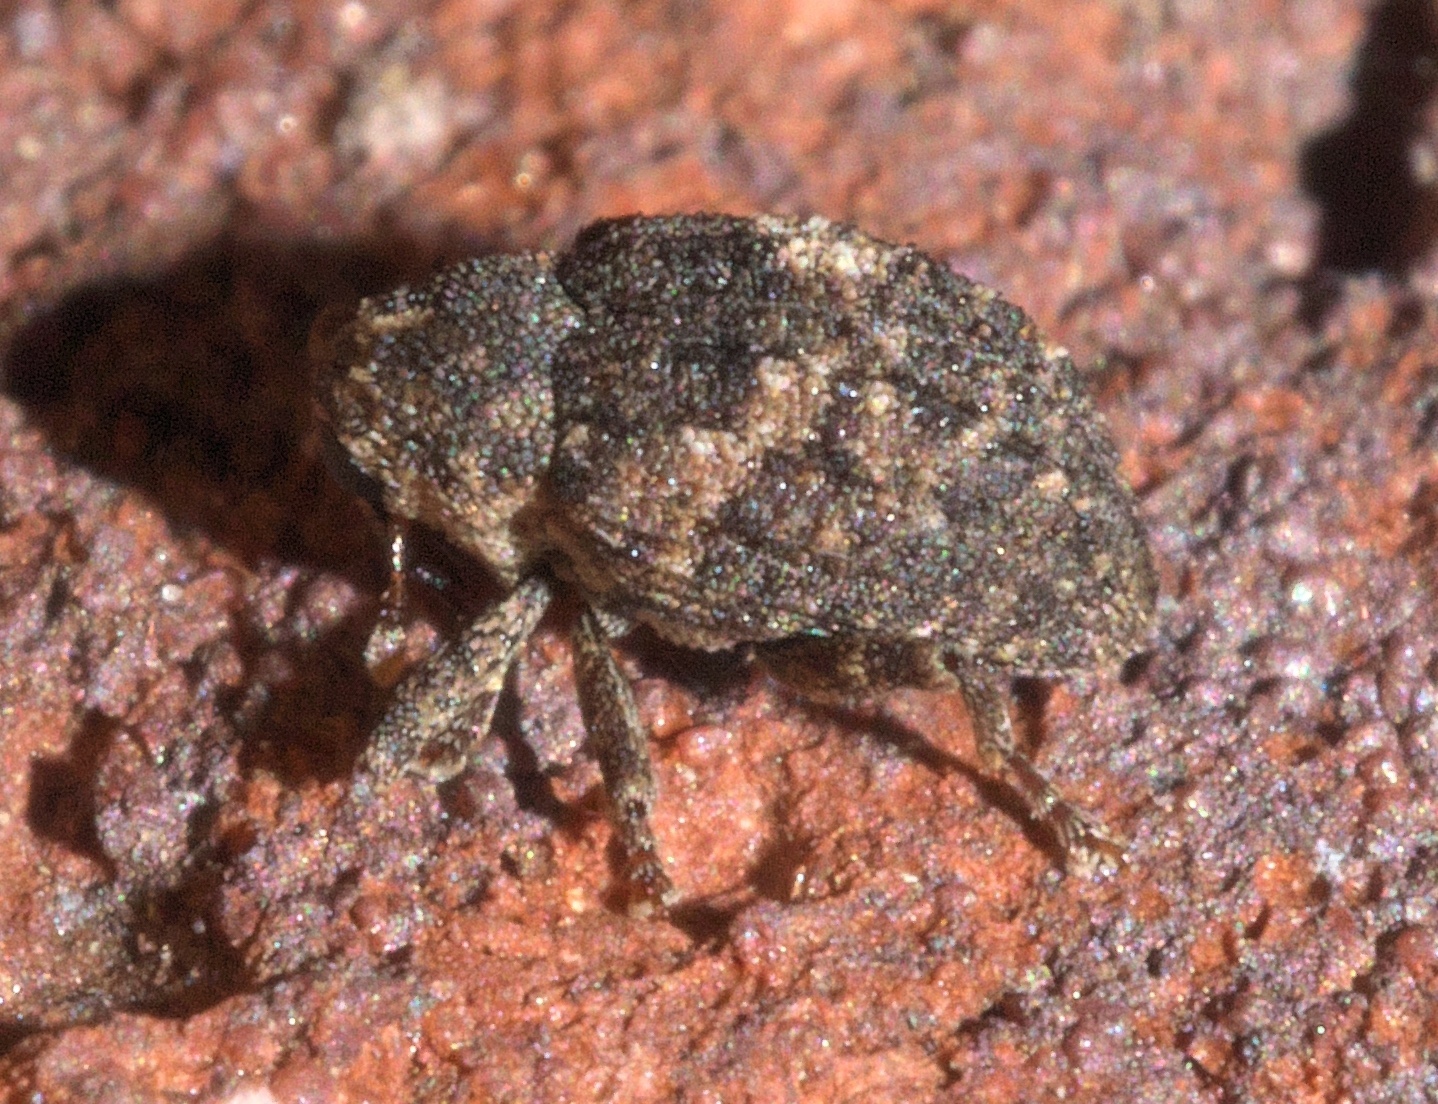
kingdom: Animalia
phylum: Arthropoda
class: Insecta
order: Coleoptera
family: Curculionidae
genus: Eubulus
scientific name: Eubulus
